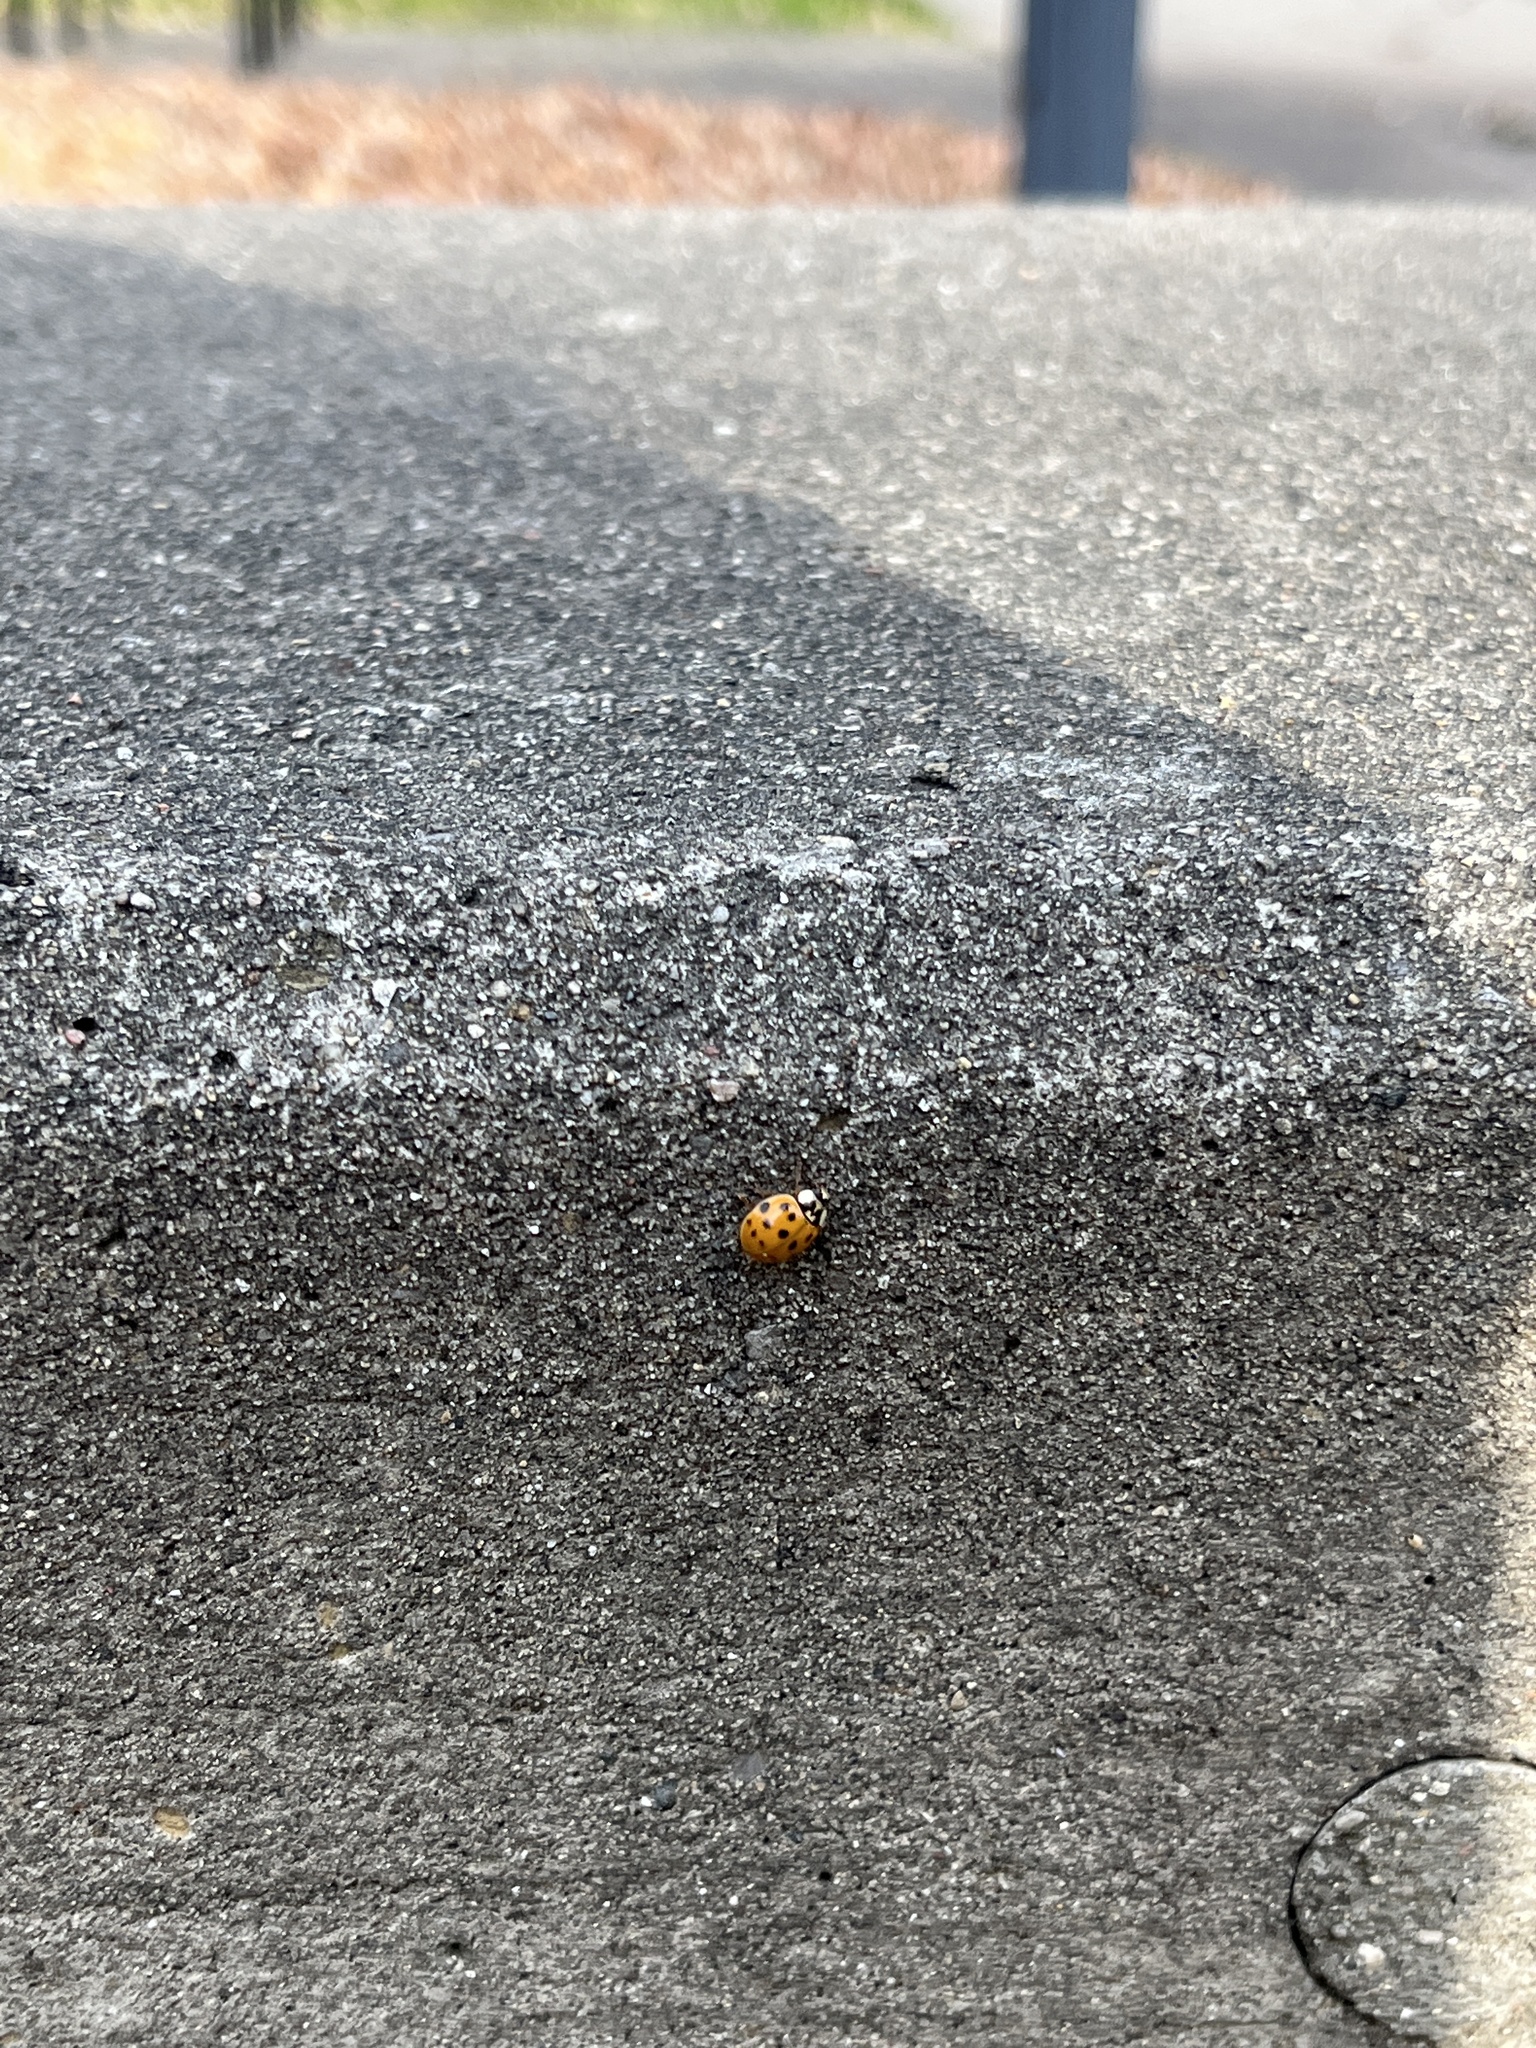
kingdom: Animalia
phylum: Arthropoda
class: Insecta
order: Coleoptera
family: Coccinellidae
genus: Harmonia
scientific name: Harmonia axyridis
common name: Harlequin ladybird
